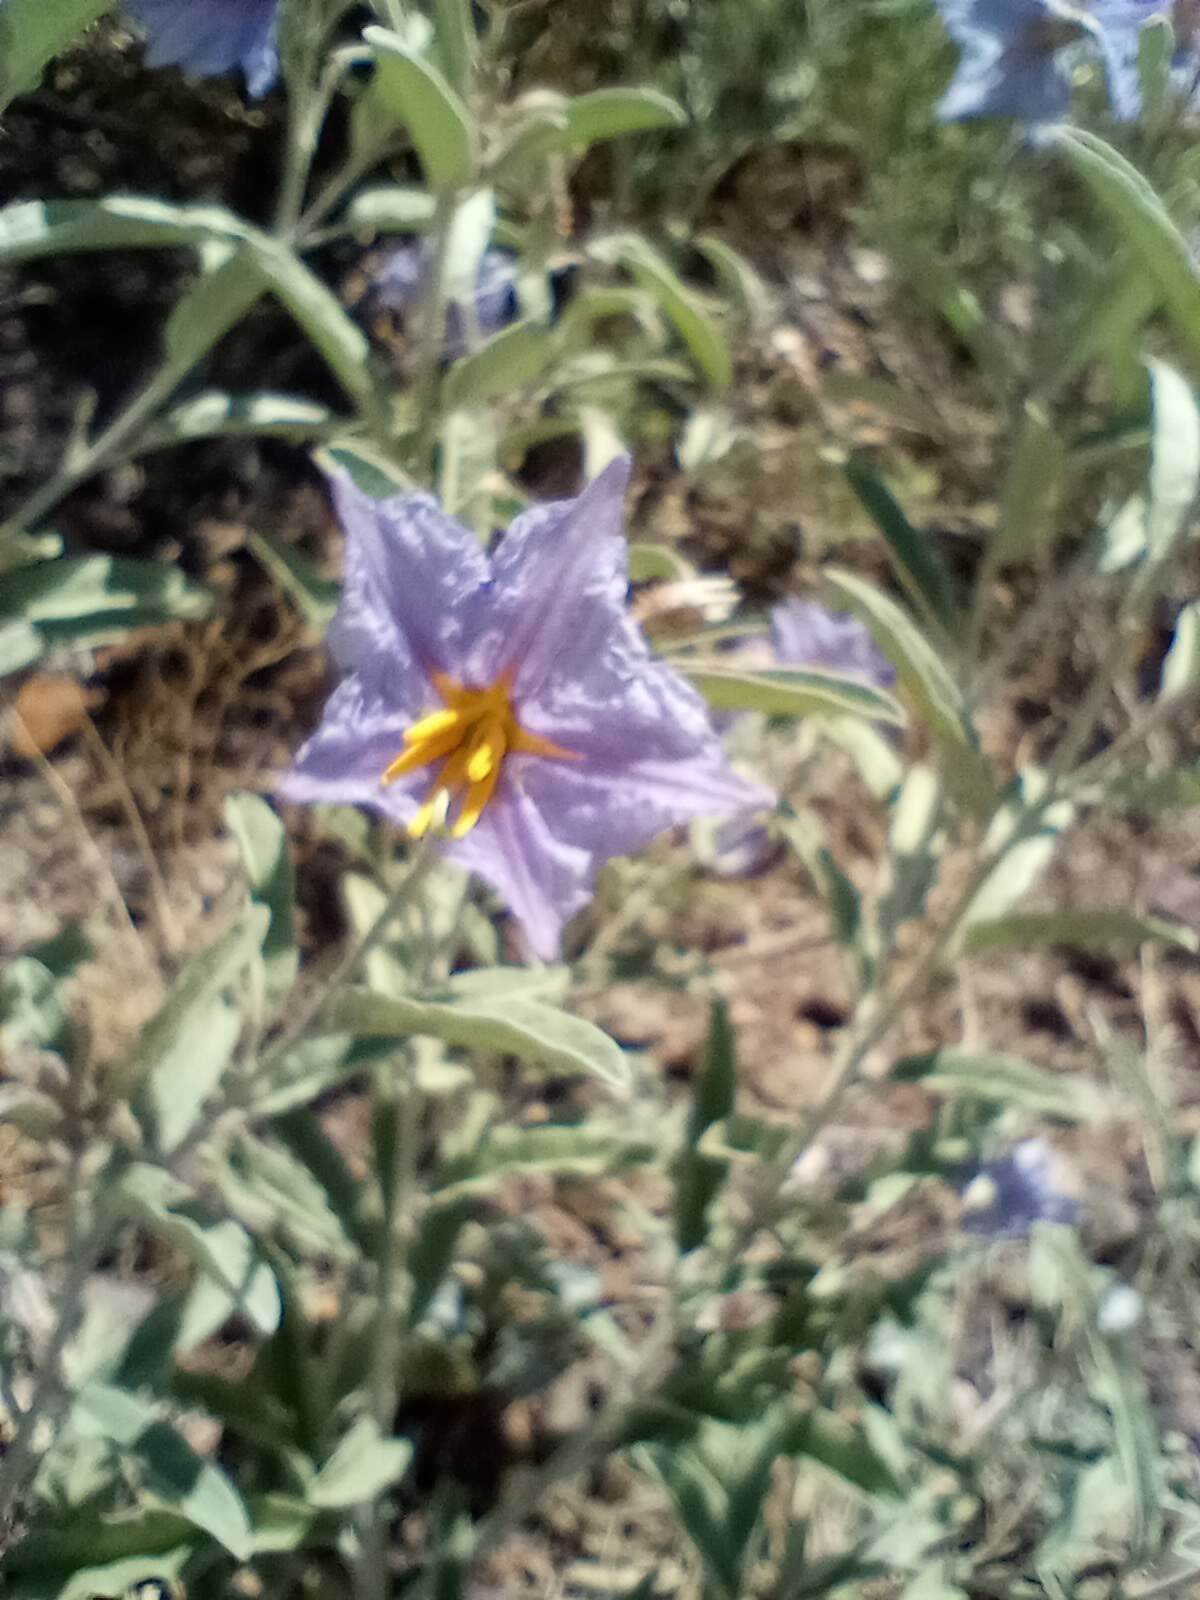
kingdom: Plantae
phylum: Tracheophyta
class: Magnoliopsida
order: Solanales
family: Solanaceae
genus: Solanum
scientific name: Solanum elaeagnifolium
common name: Silverleaf nightshade
